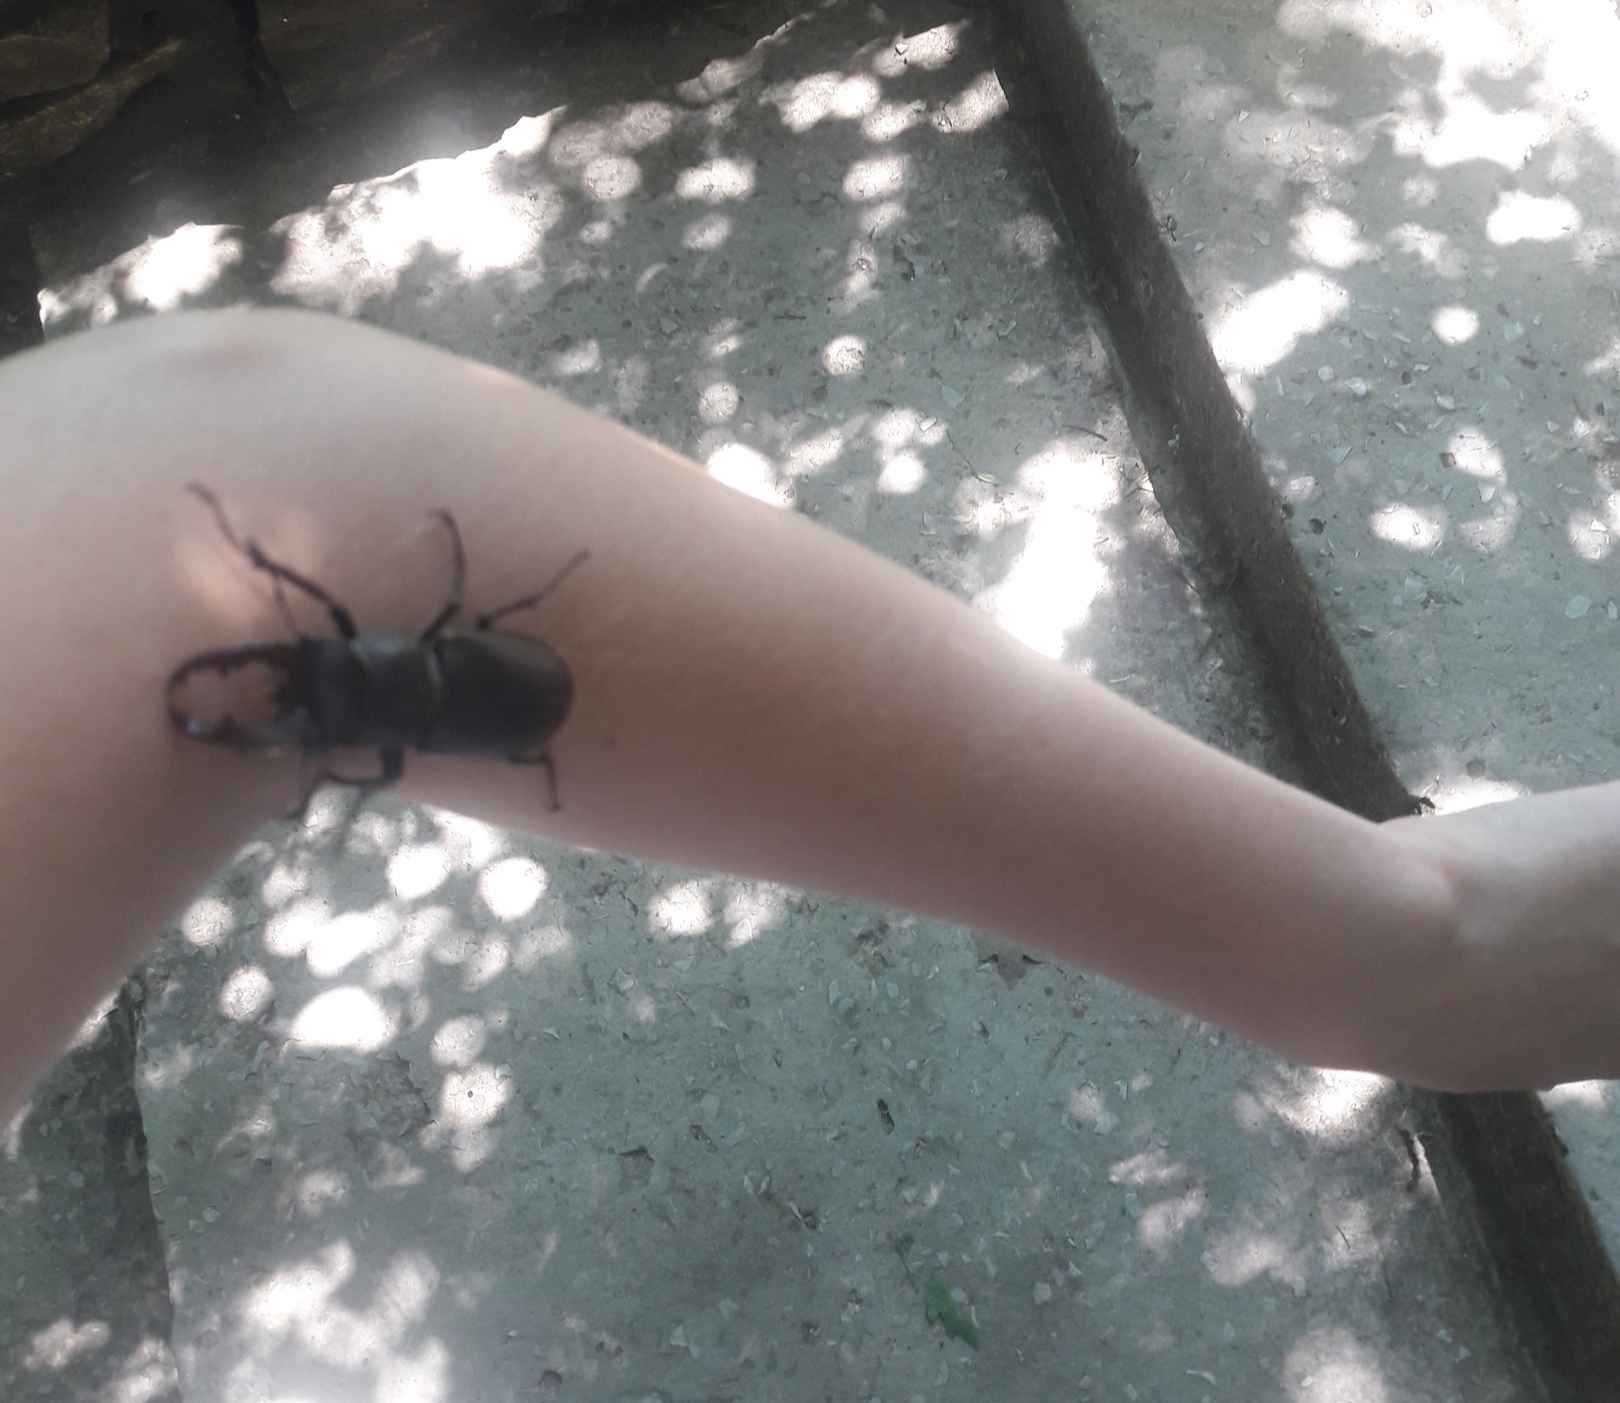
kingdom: Animalia
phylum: Arthropoda
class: Insecta
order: Coleoptera
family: Lucanidae
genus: Lucanus
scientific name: Lucanus cervus
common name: Stag beetle
